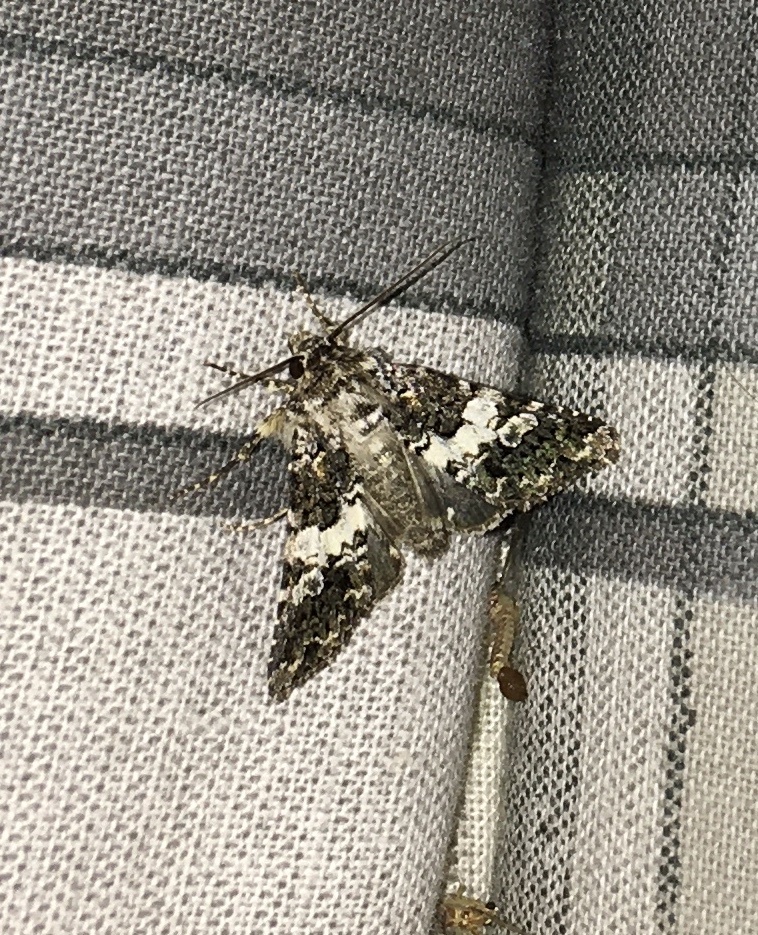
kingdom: Animalia
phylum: Arthropoda
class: Insecta
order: Lepidoptera
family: Noctuidae
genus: Hadena
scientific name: Hadena compta
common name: Varied coronet
